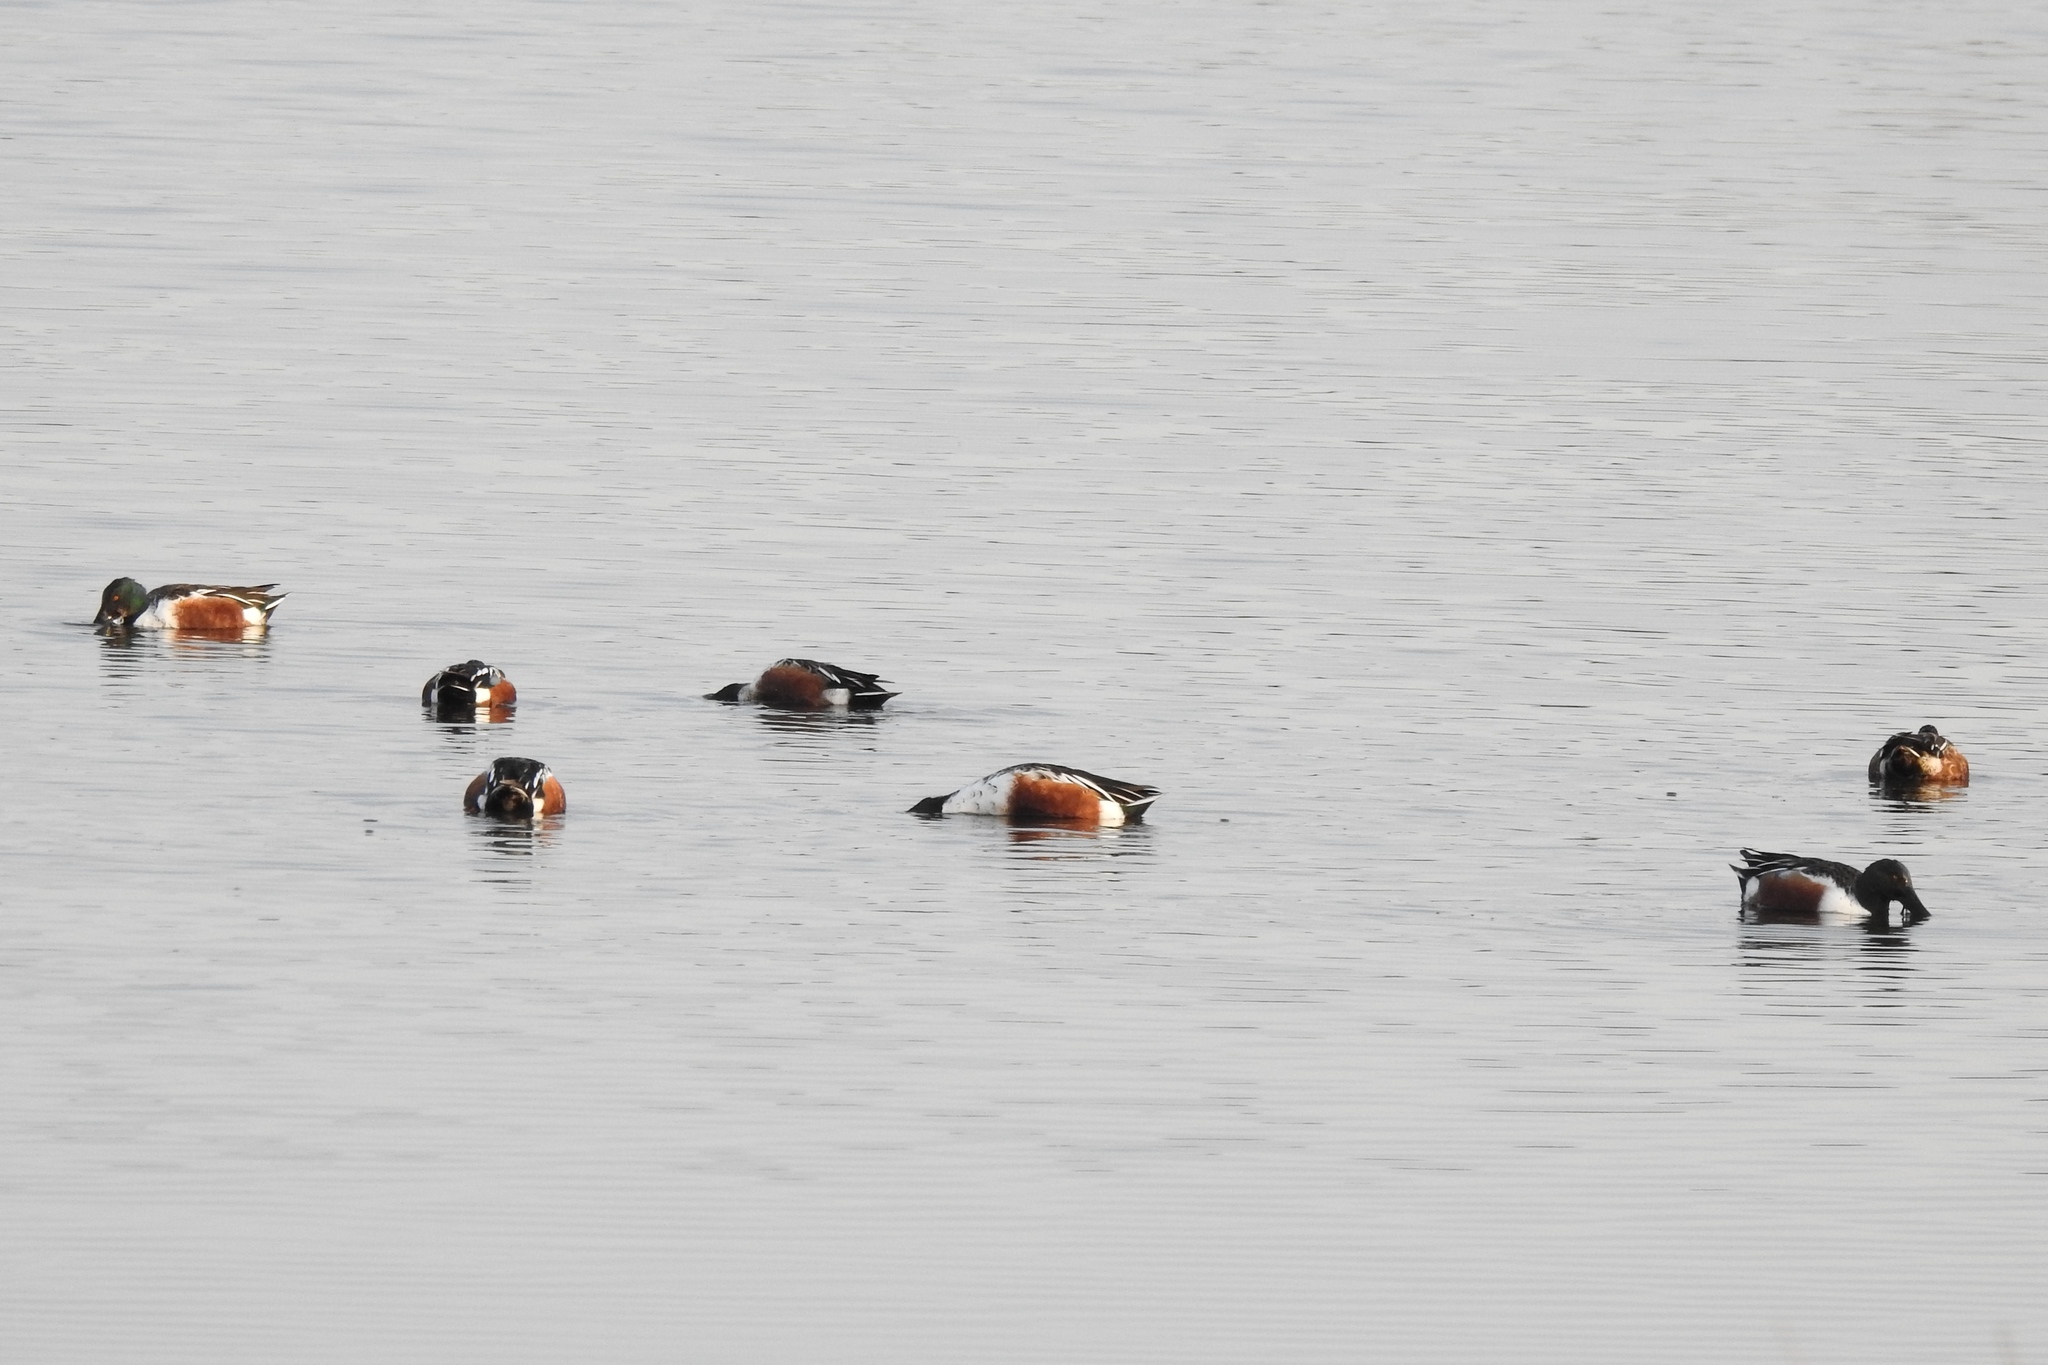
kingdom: Animalia
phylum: Chordata
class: Aves
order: Anseriformes
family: Anatidae
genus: Spatula
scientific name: Spatula clypeata
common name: Northern shoveler
